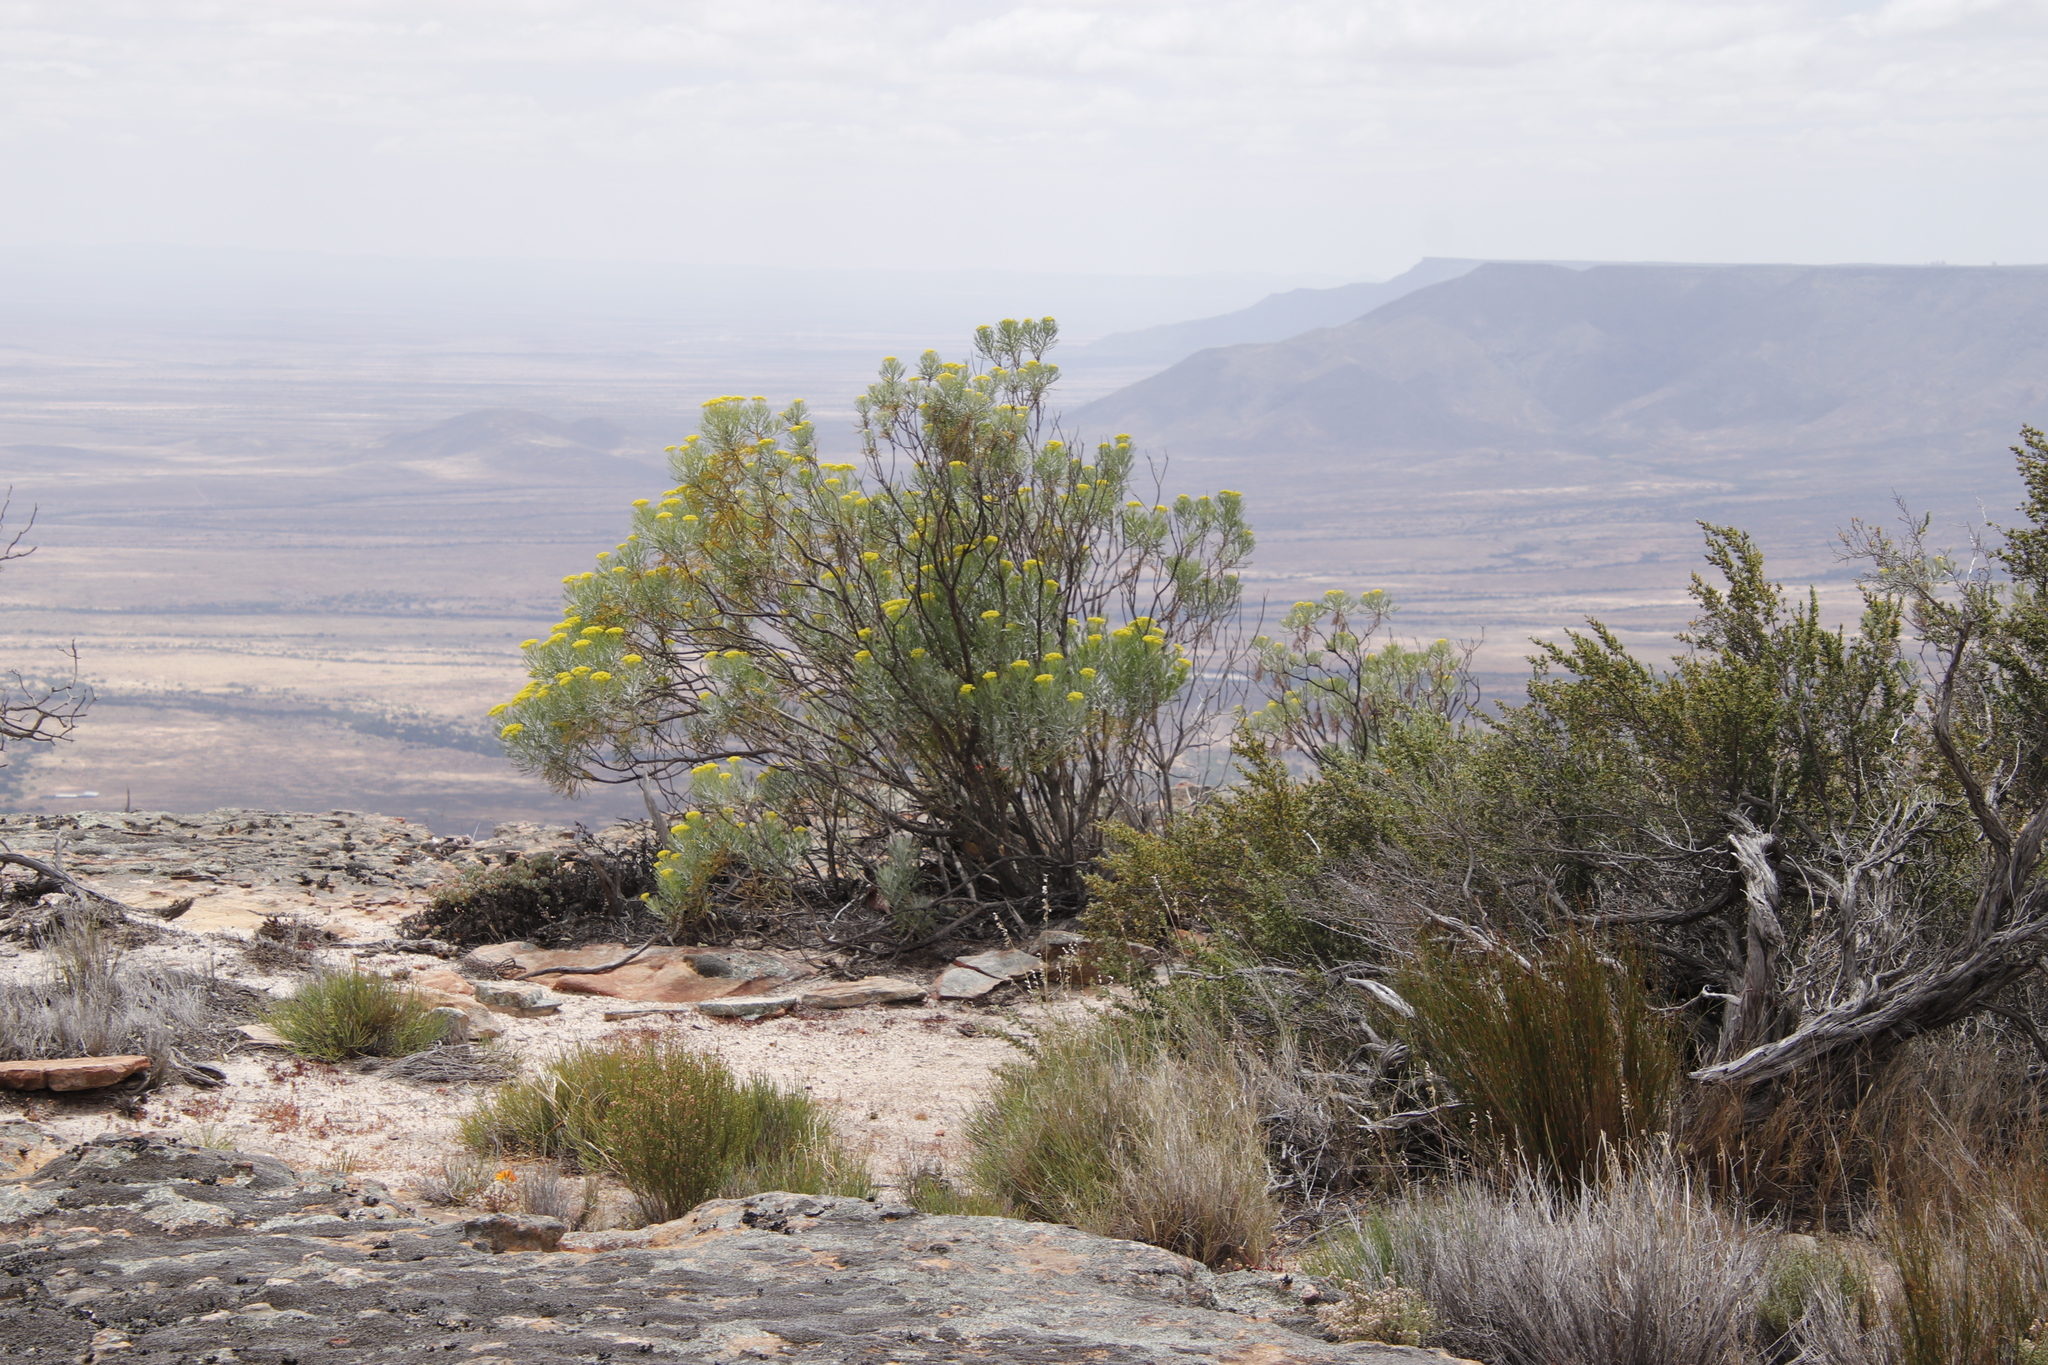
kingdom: Plantae
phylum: Tracheophyta
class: Magnoliopsida
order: Asterales
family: Asteraceae
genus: Hymenolepis
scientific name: Hymenolepis crithmifolia
